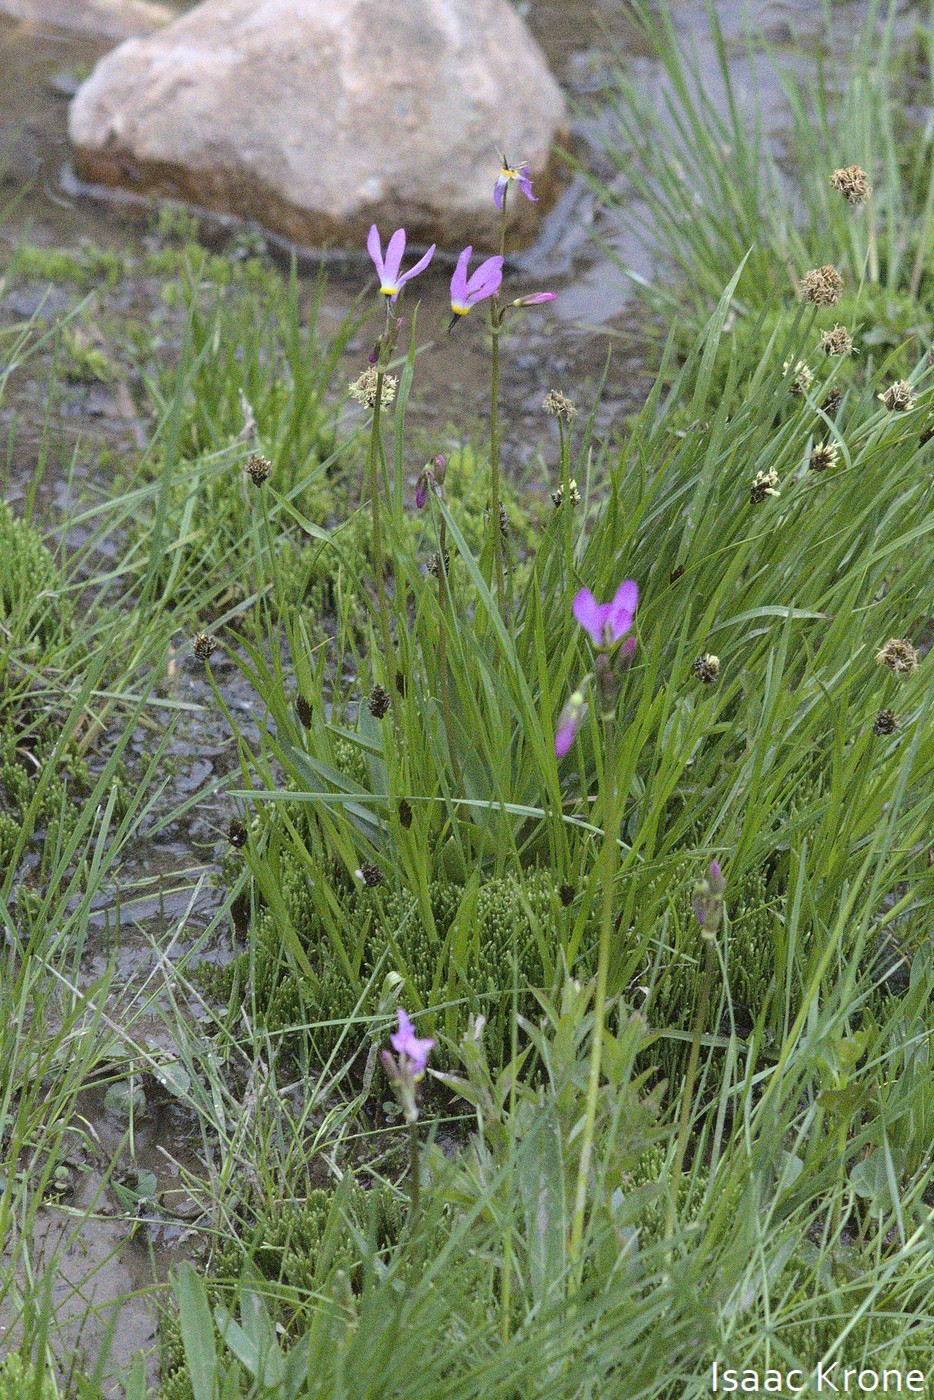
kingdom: Plantae
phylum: Tracheophyta
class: Magnoliopsida
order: Ericales
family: Primulaceae
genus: Dodecatheon
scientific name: Dodecatheon alpinum
